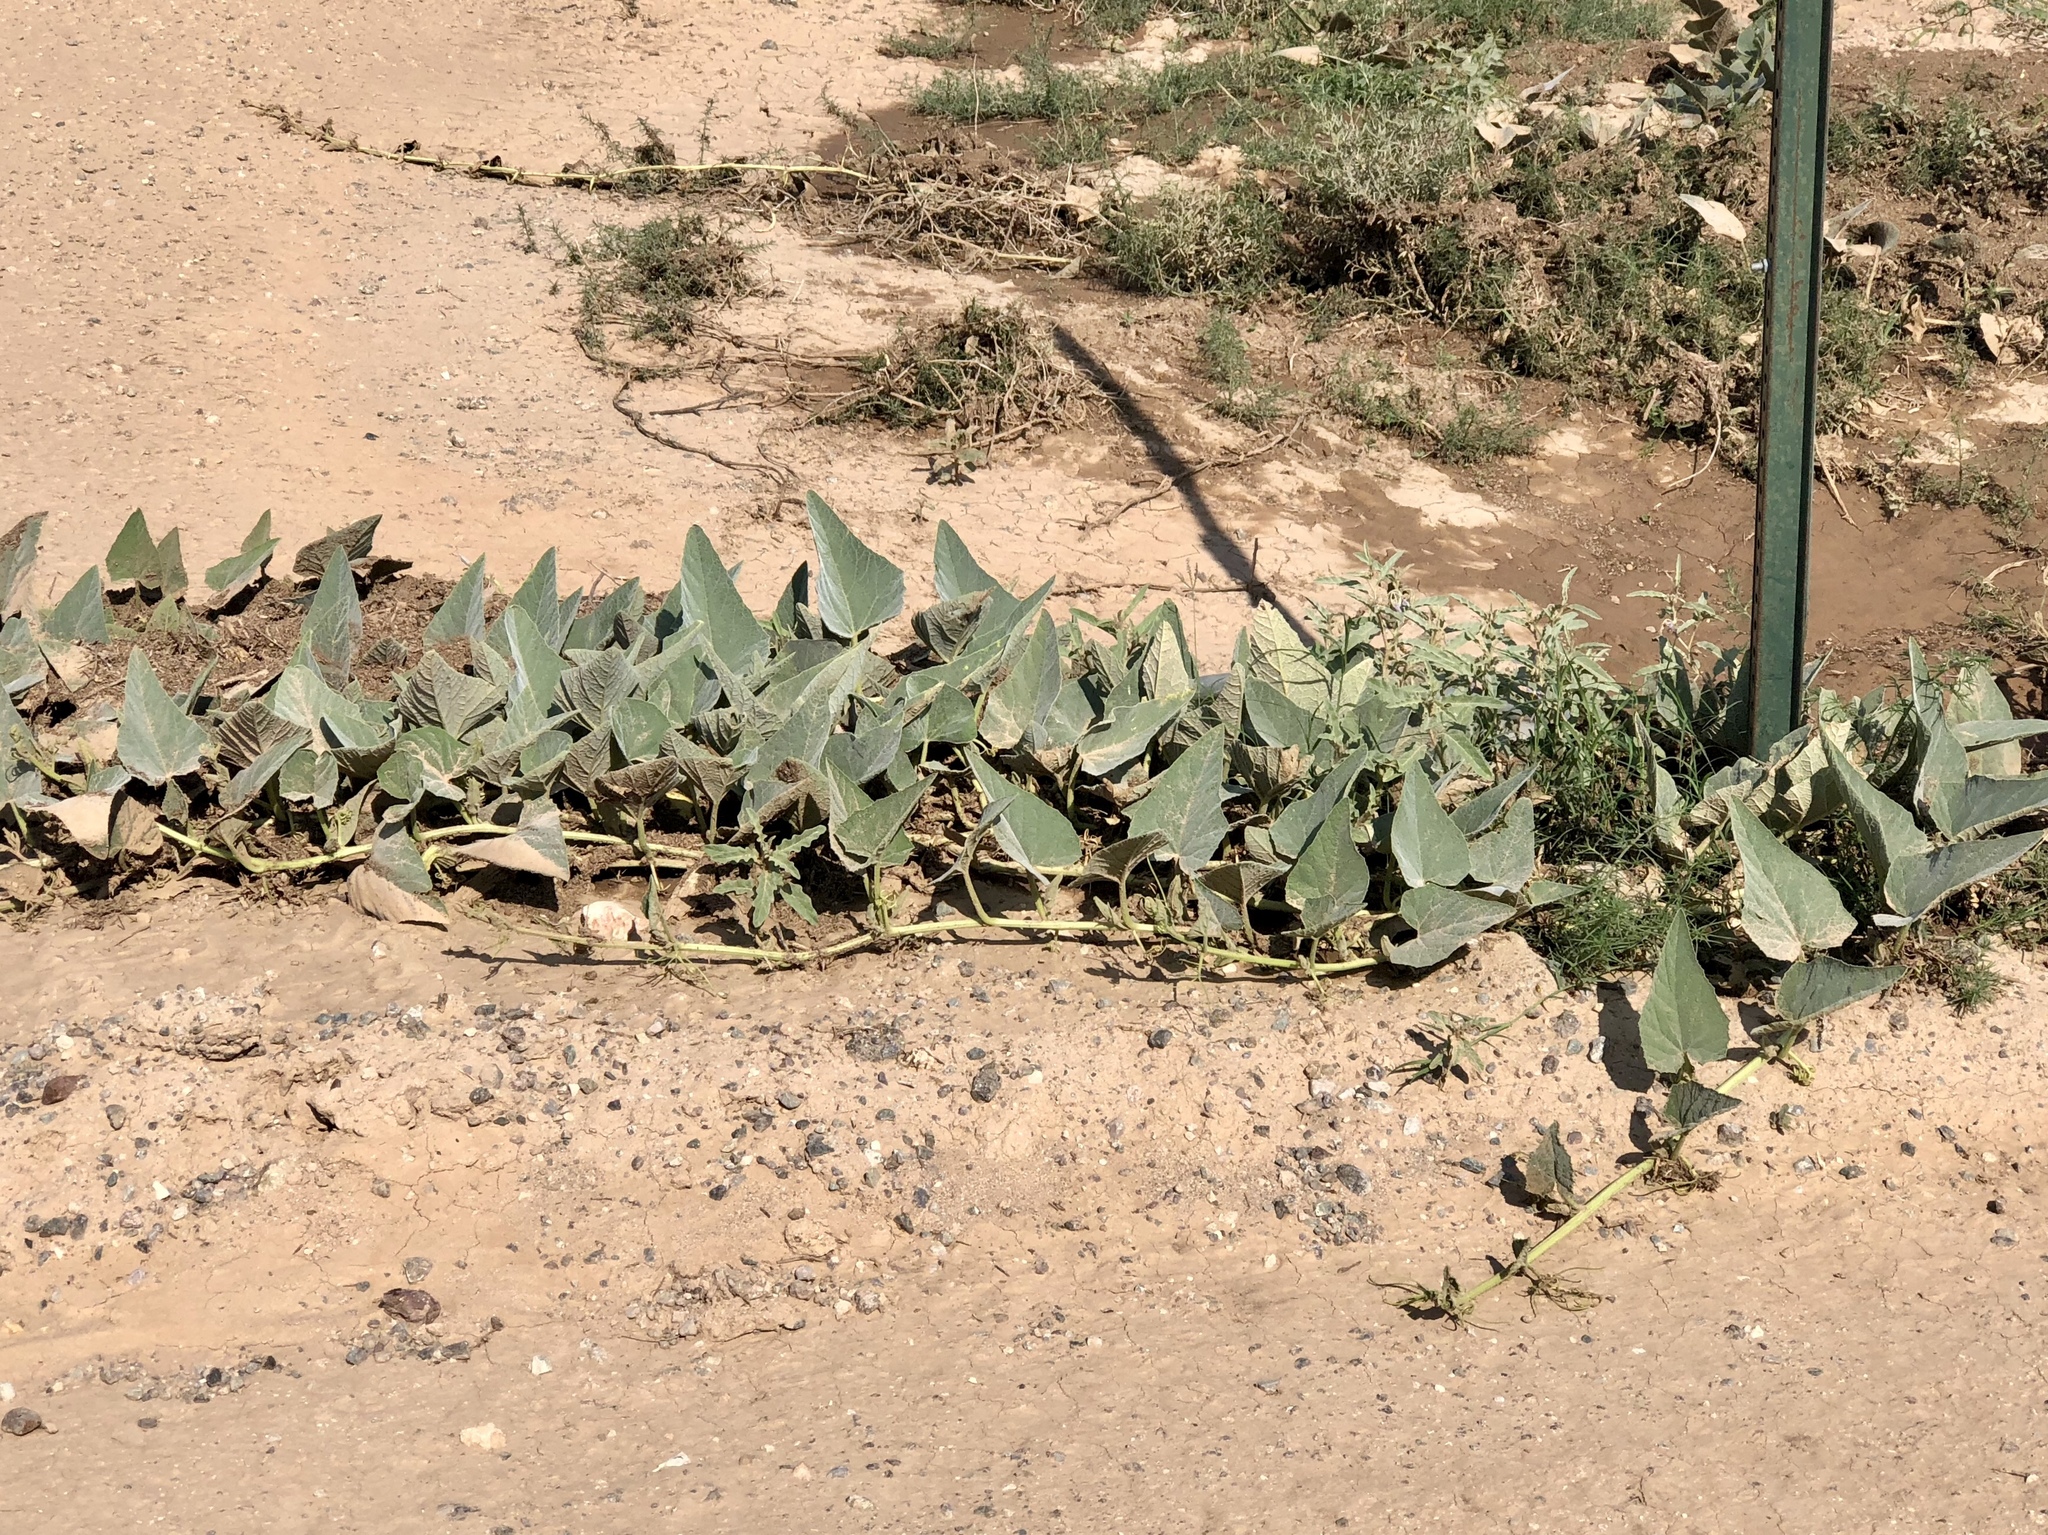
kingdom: Plantae
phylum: Tracheophyta
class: Magnoliopsida
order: Cucurbitales
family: Cucurbitaceae
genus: Cucurbita
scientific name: Cucurbita foetidissima
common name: Buffalo gourd
